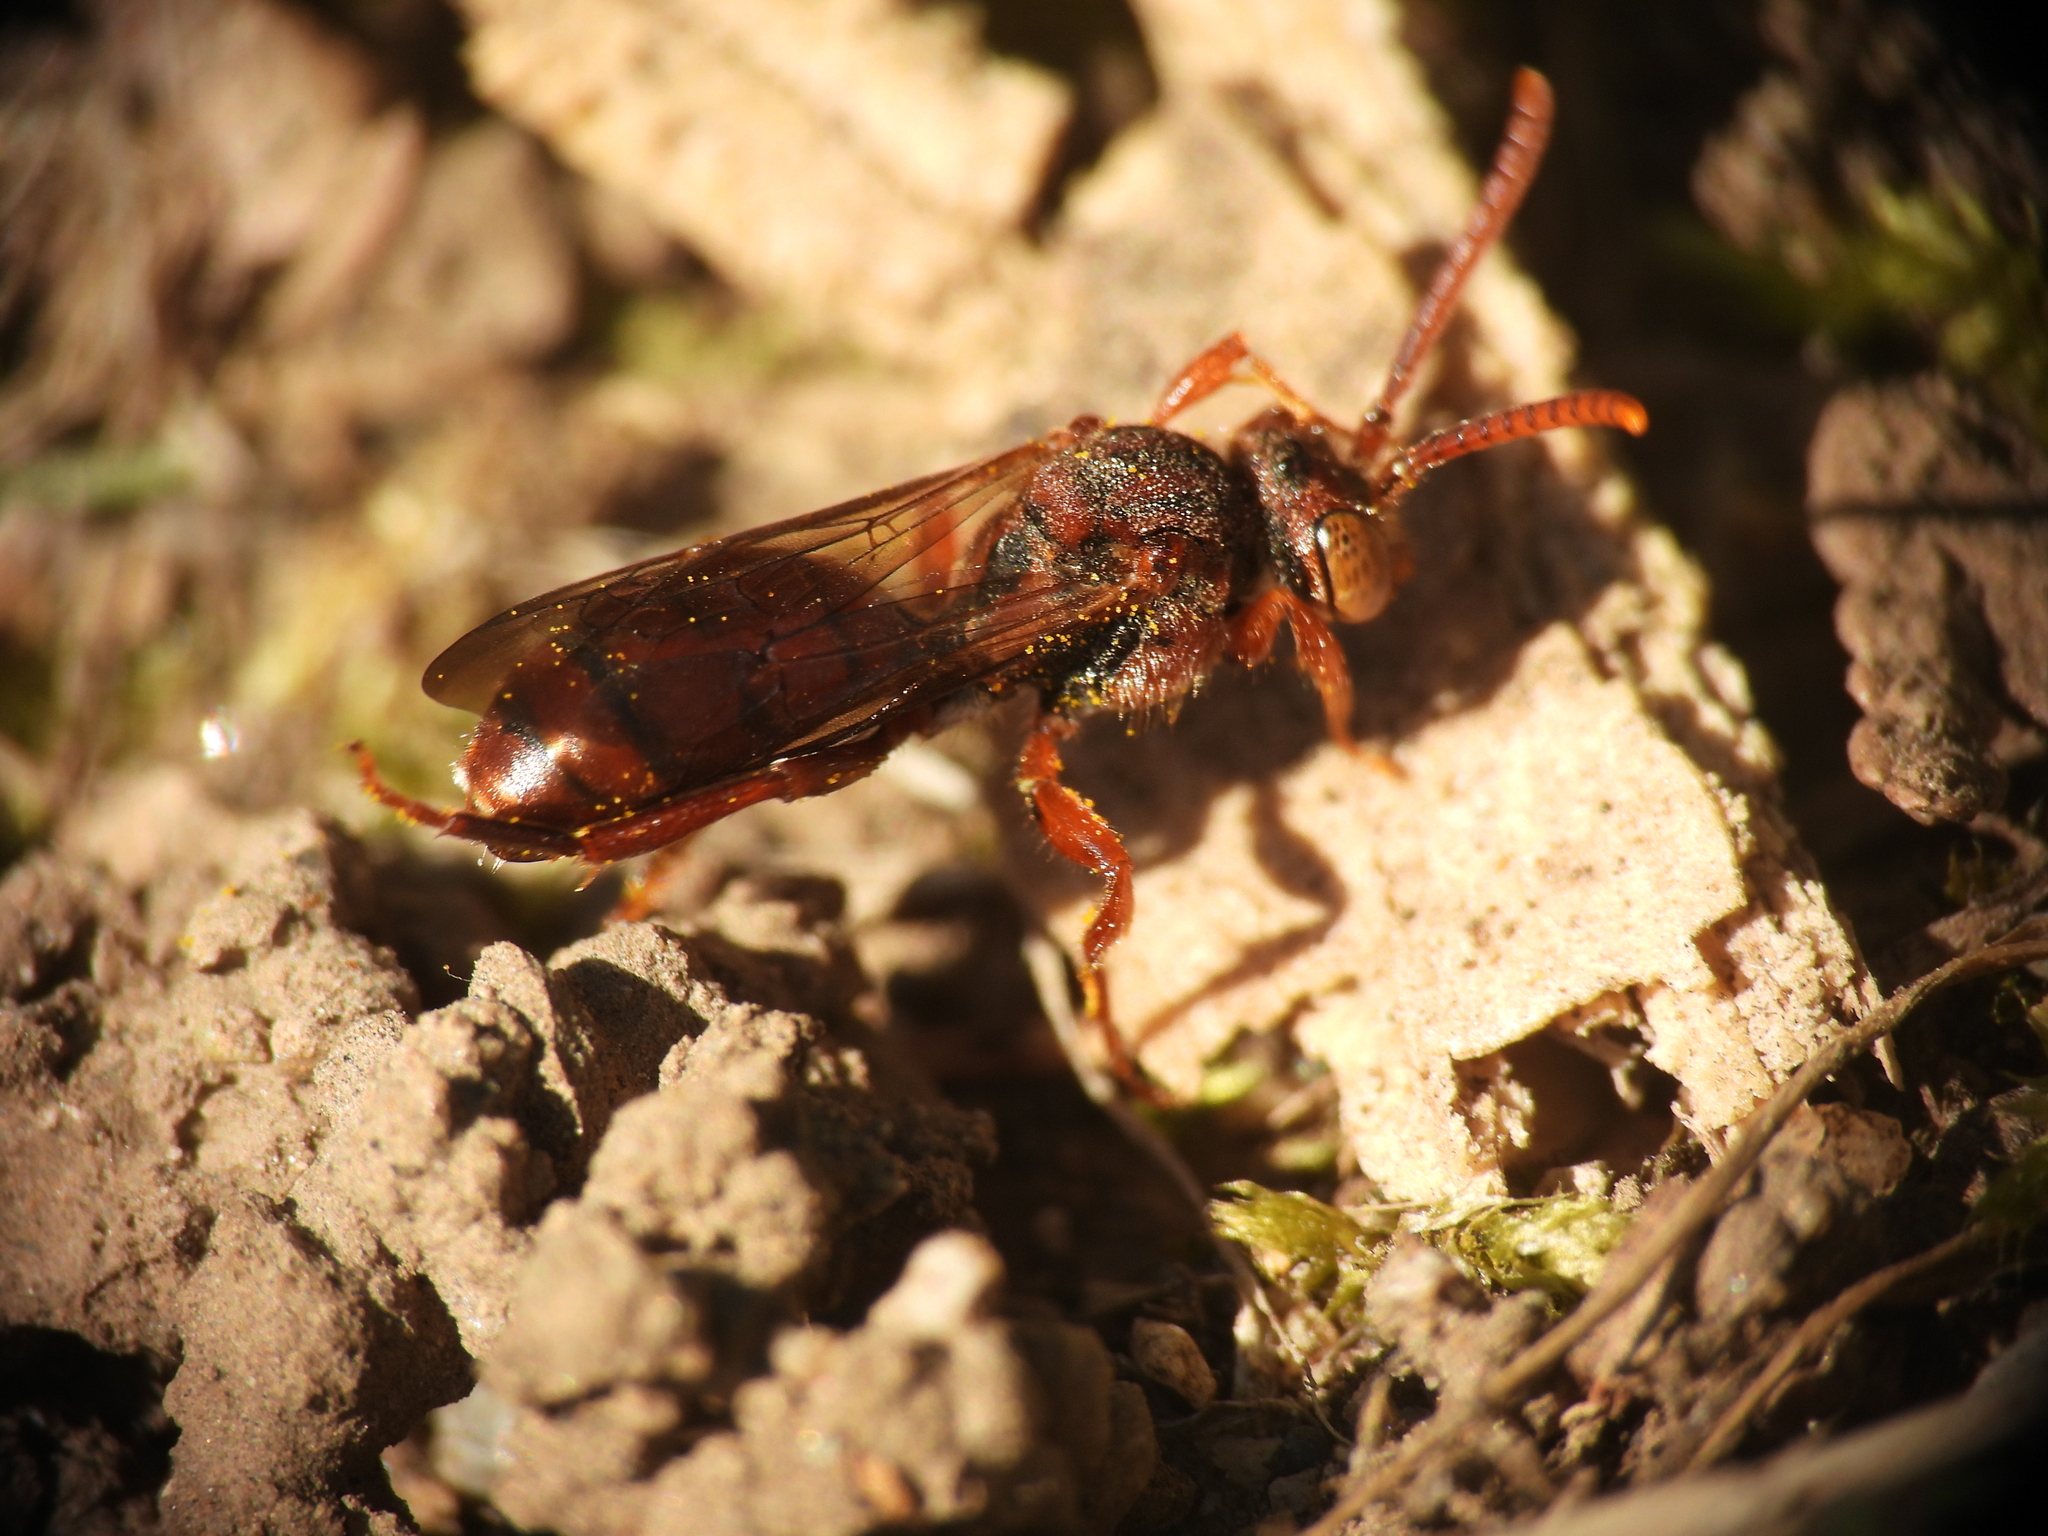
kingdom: Animalia
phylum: Arthropoda
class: Insecta
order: Hymenoptera
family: Apidae
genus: Nomada
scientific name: Nomada
